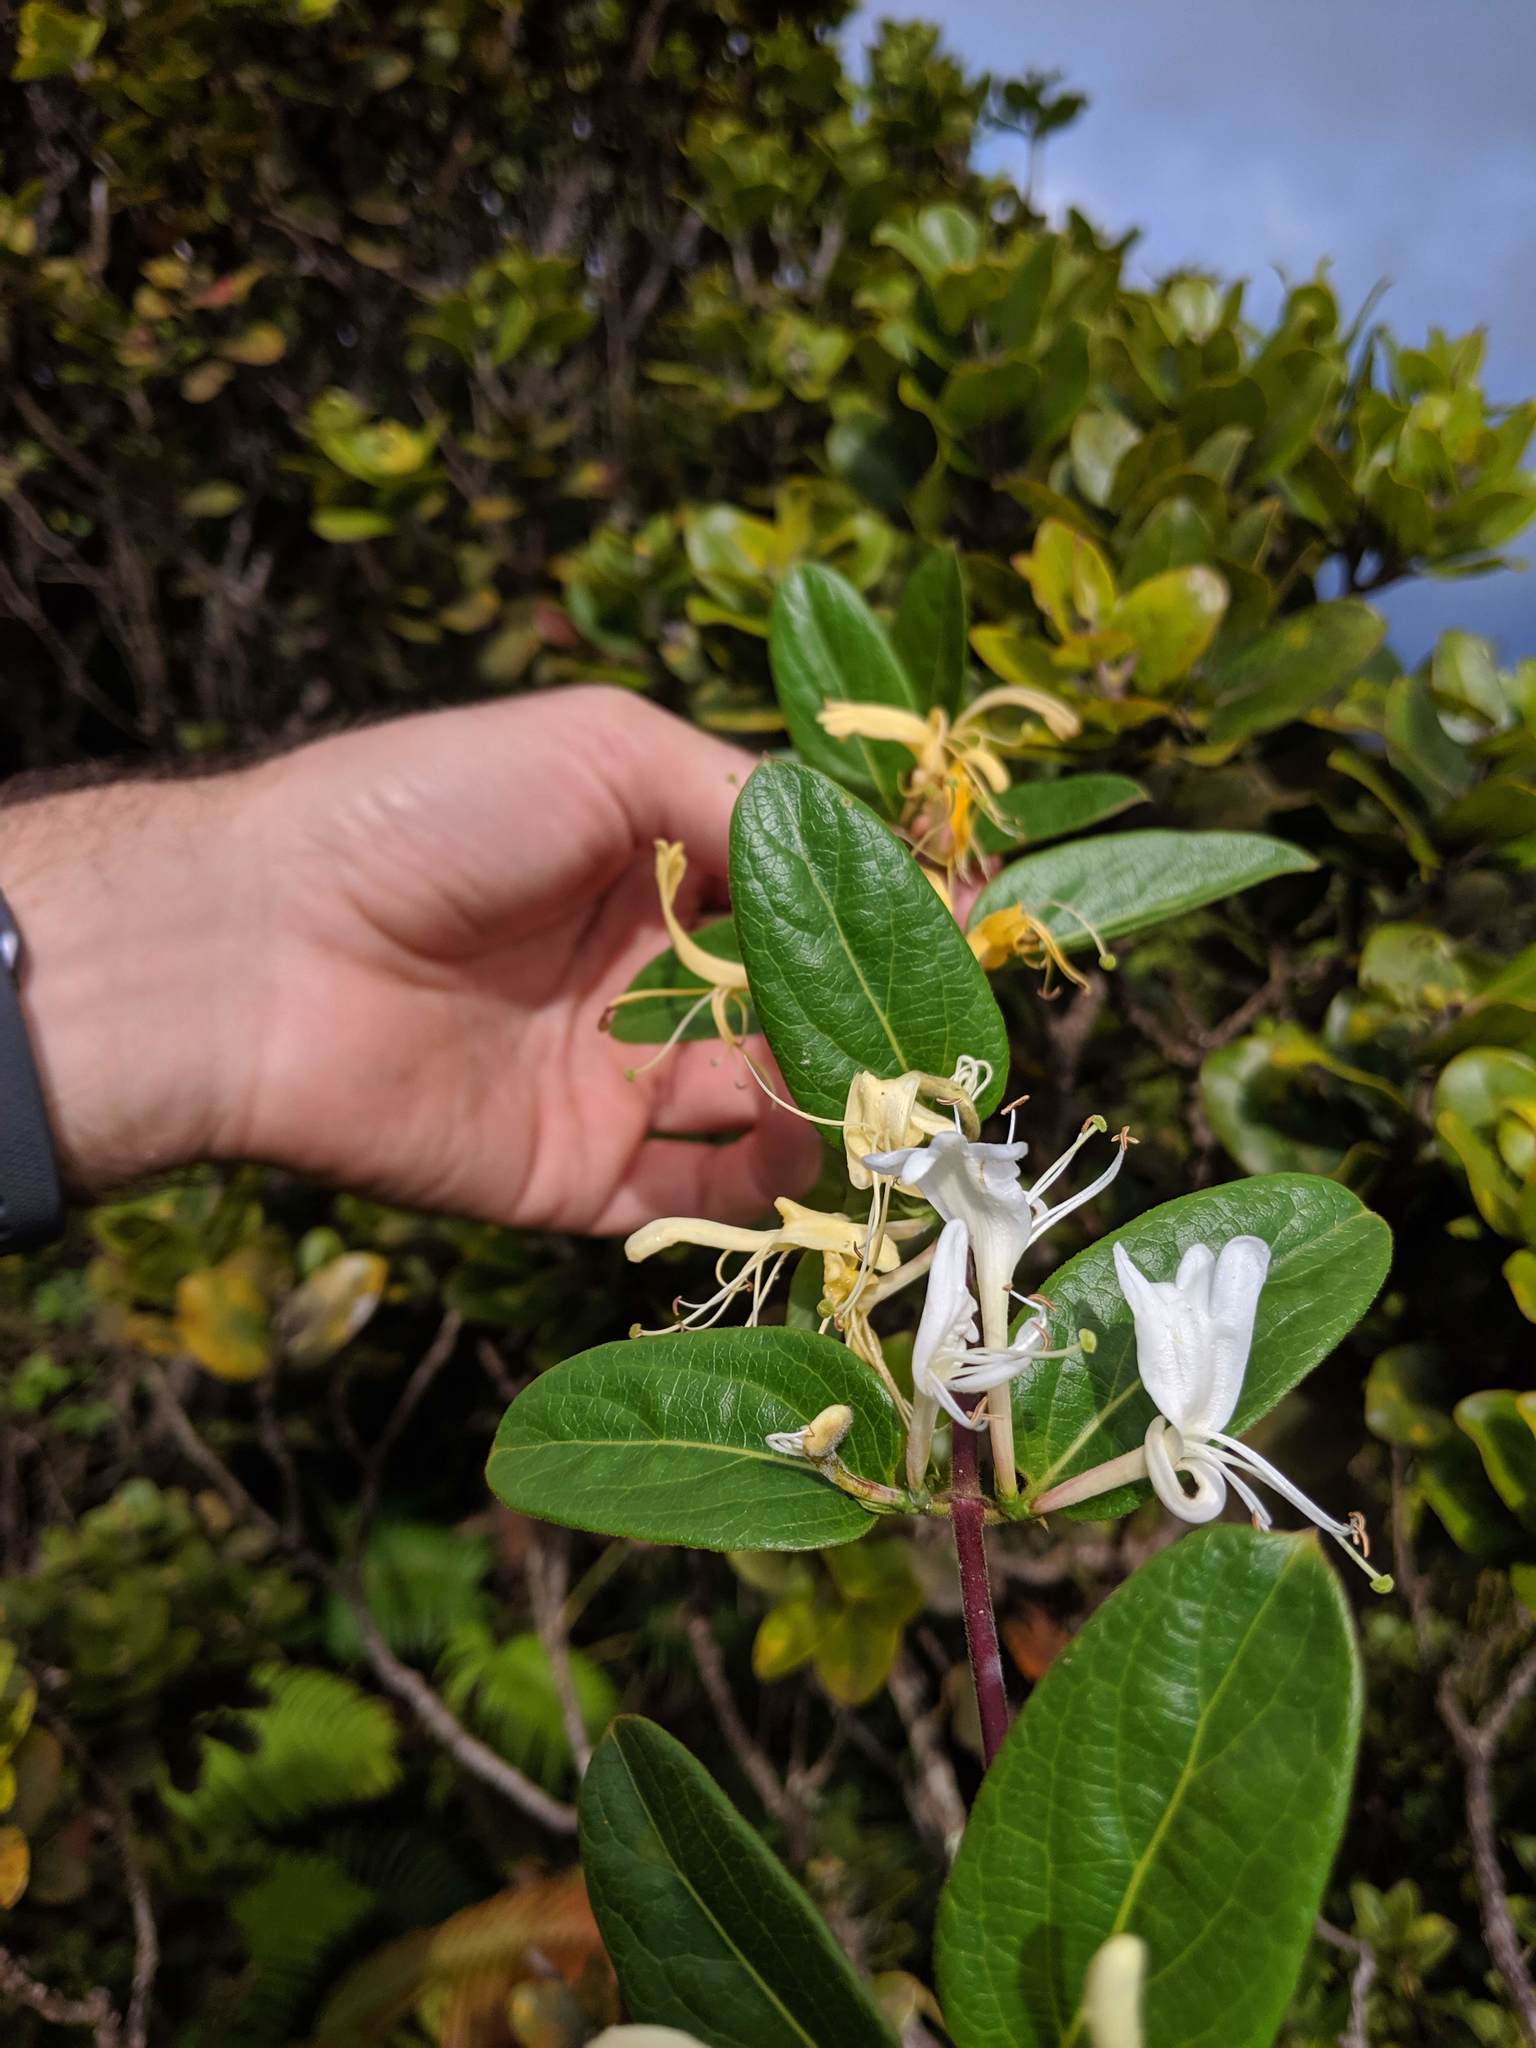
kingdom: Plantae
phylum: Tracheophyta
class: Magnoliopsida
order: Dipsacales
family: Caprifoliaceae
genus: Lonicera
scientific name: Lonicera japonica
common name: Japanese honeysuckle
